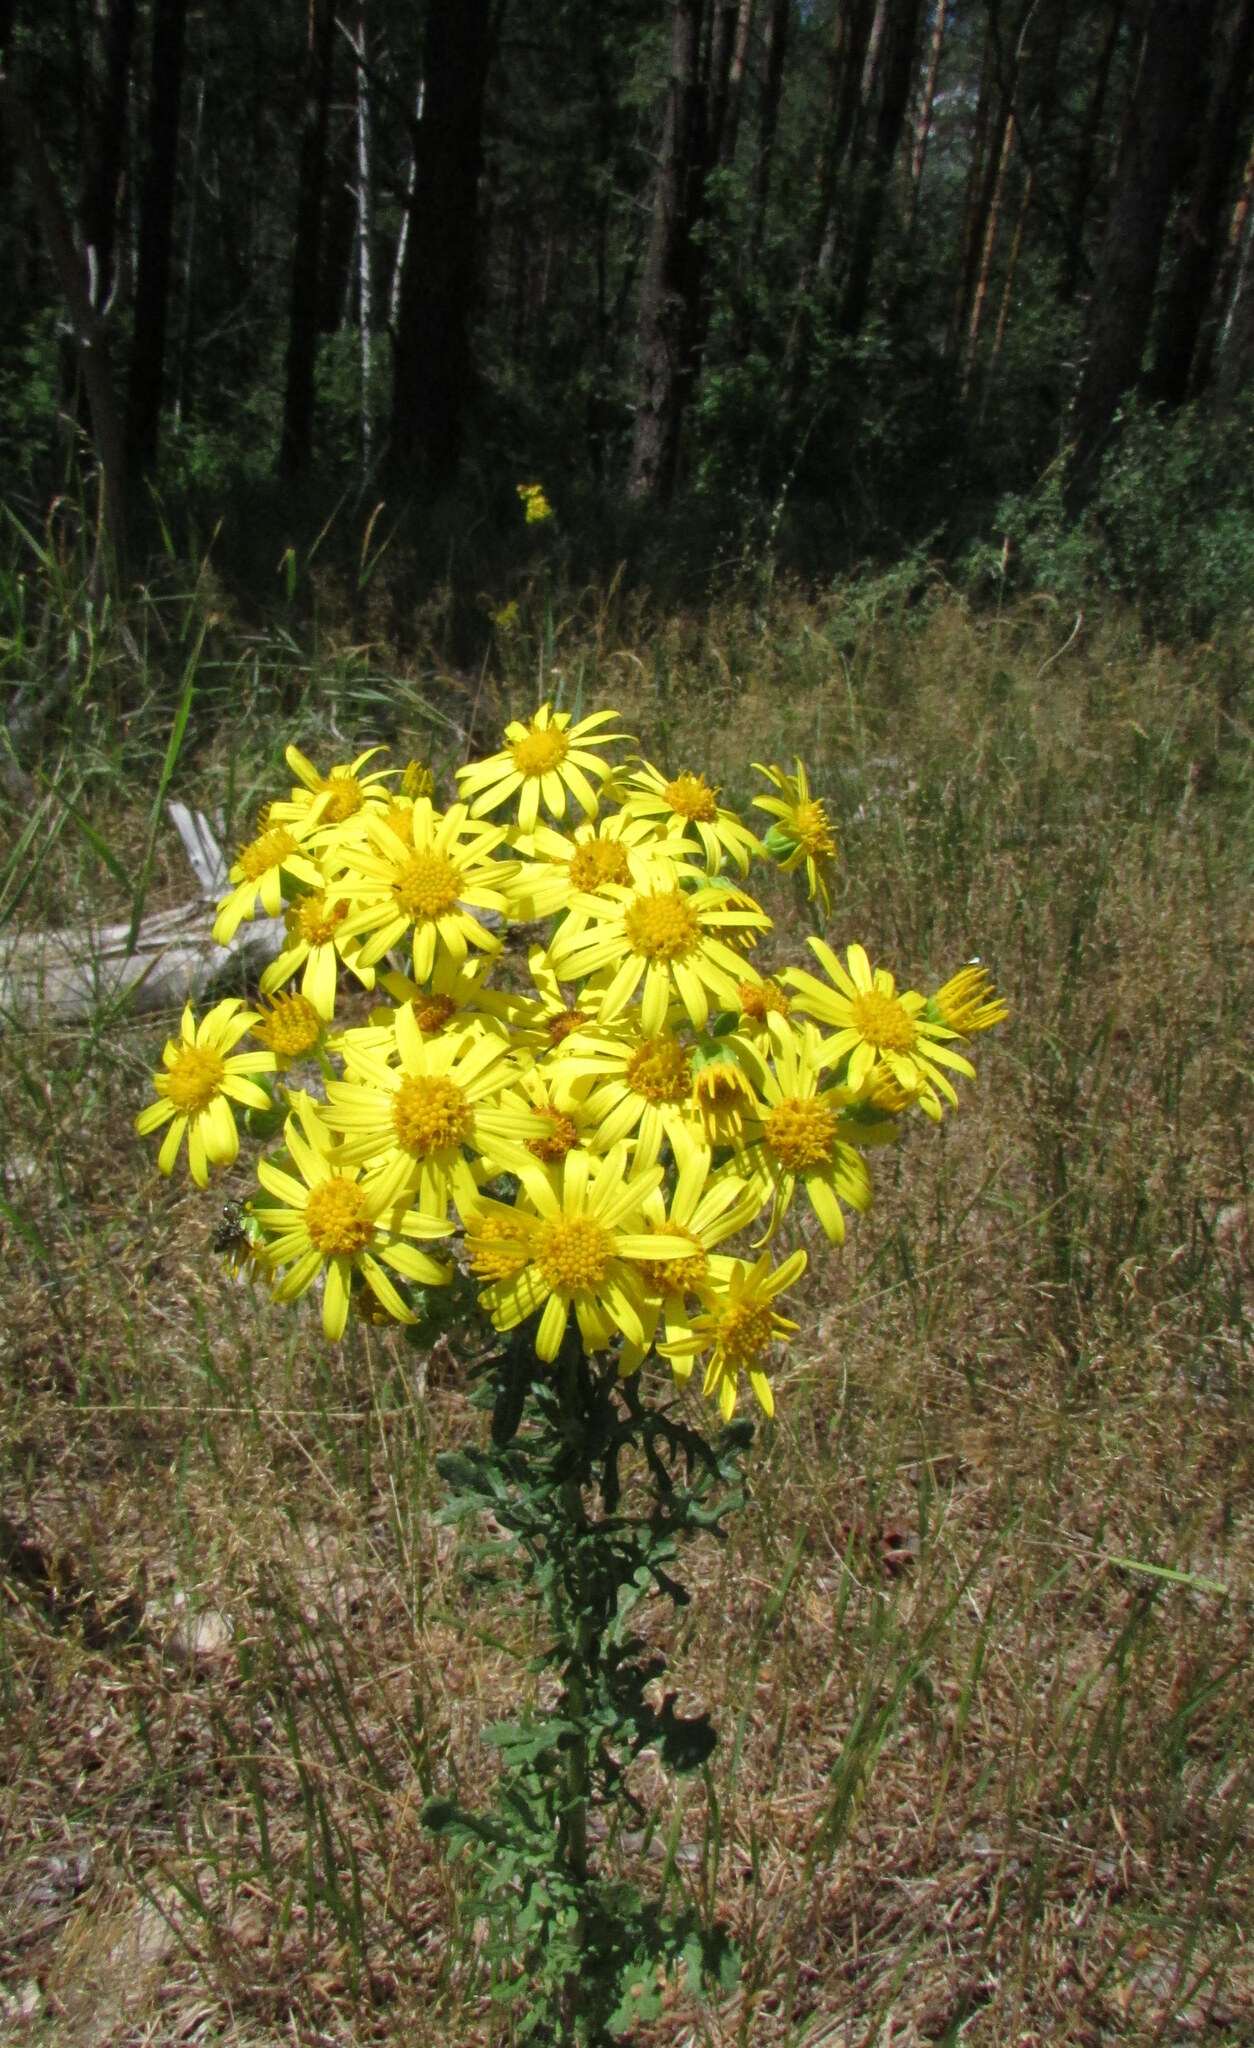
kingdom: Plantae
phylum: Tracheophyta
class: Magnoliopsida
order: Asterales
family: Asteraceae
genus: Jacobaea
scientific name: Jacobaea vulgaris
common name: Stinking willie
